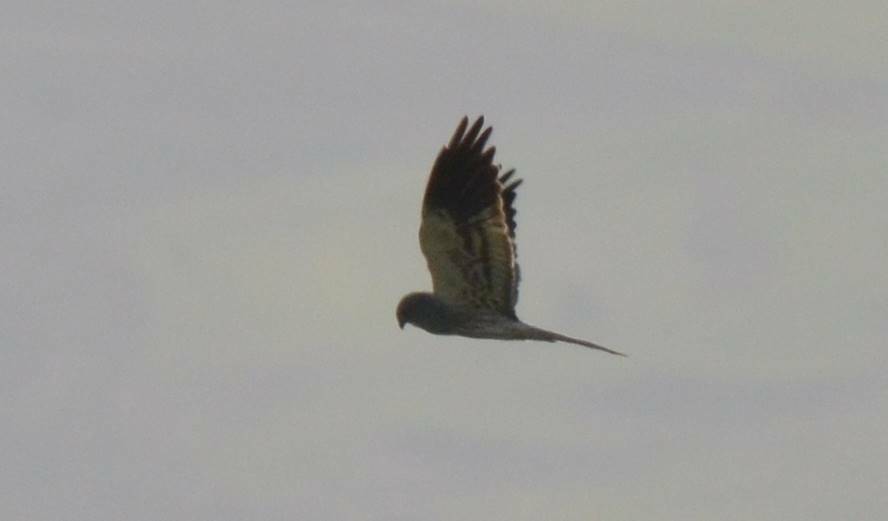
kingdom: Animalia
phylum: Chordata
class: Aves
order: Accipitriformes
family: Accipitridae
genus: Circus
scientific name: Circus pygargus
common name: Montagu's harrier
